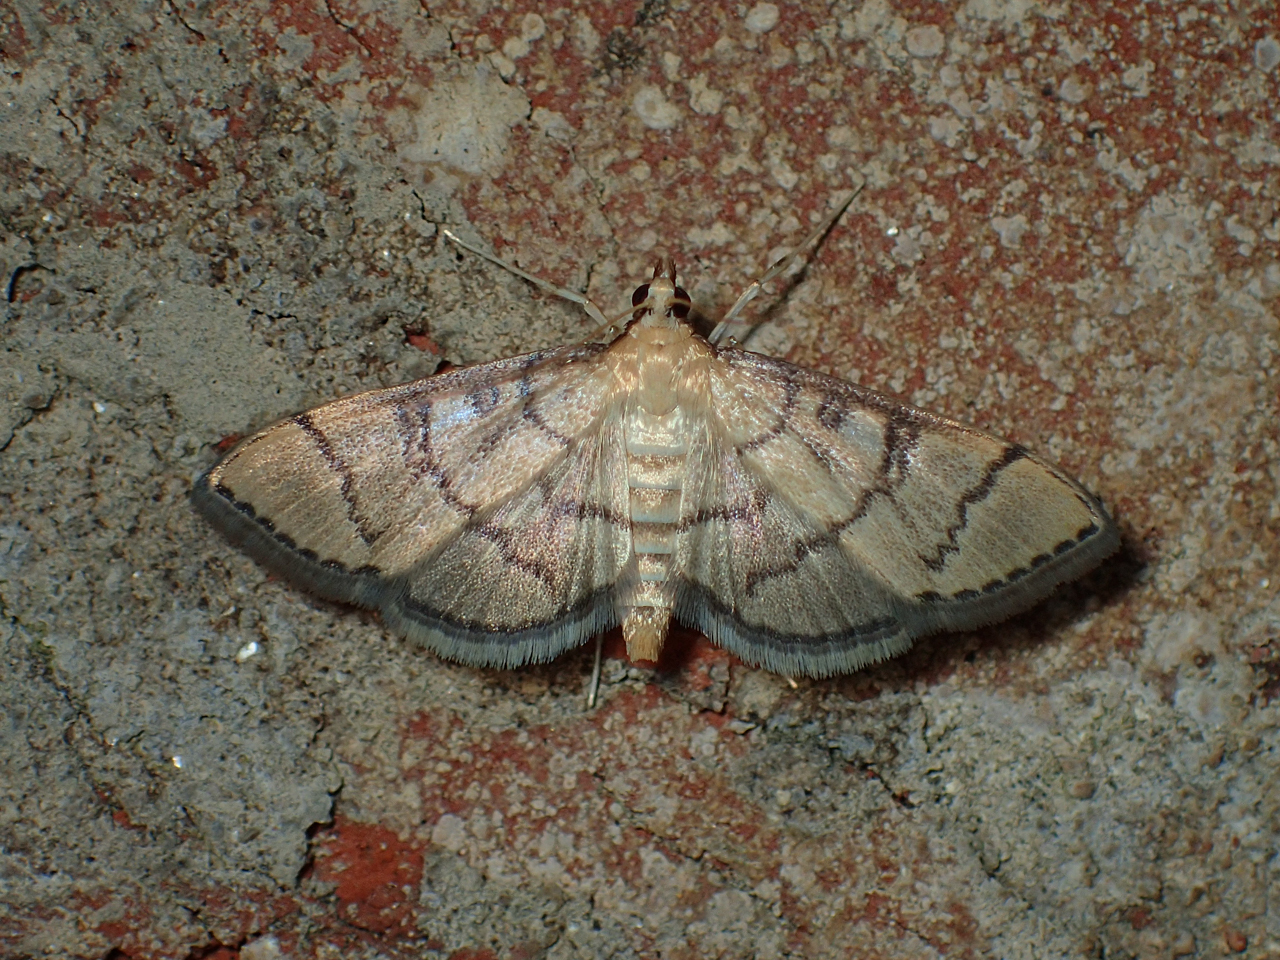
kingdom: Animalia
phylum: Arthropoda
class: Insecta
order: Lepidoptera
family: Crambidae
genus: Lamprosema
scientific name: Lamprosema Blepharomastix ranalis
